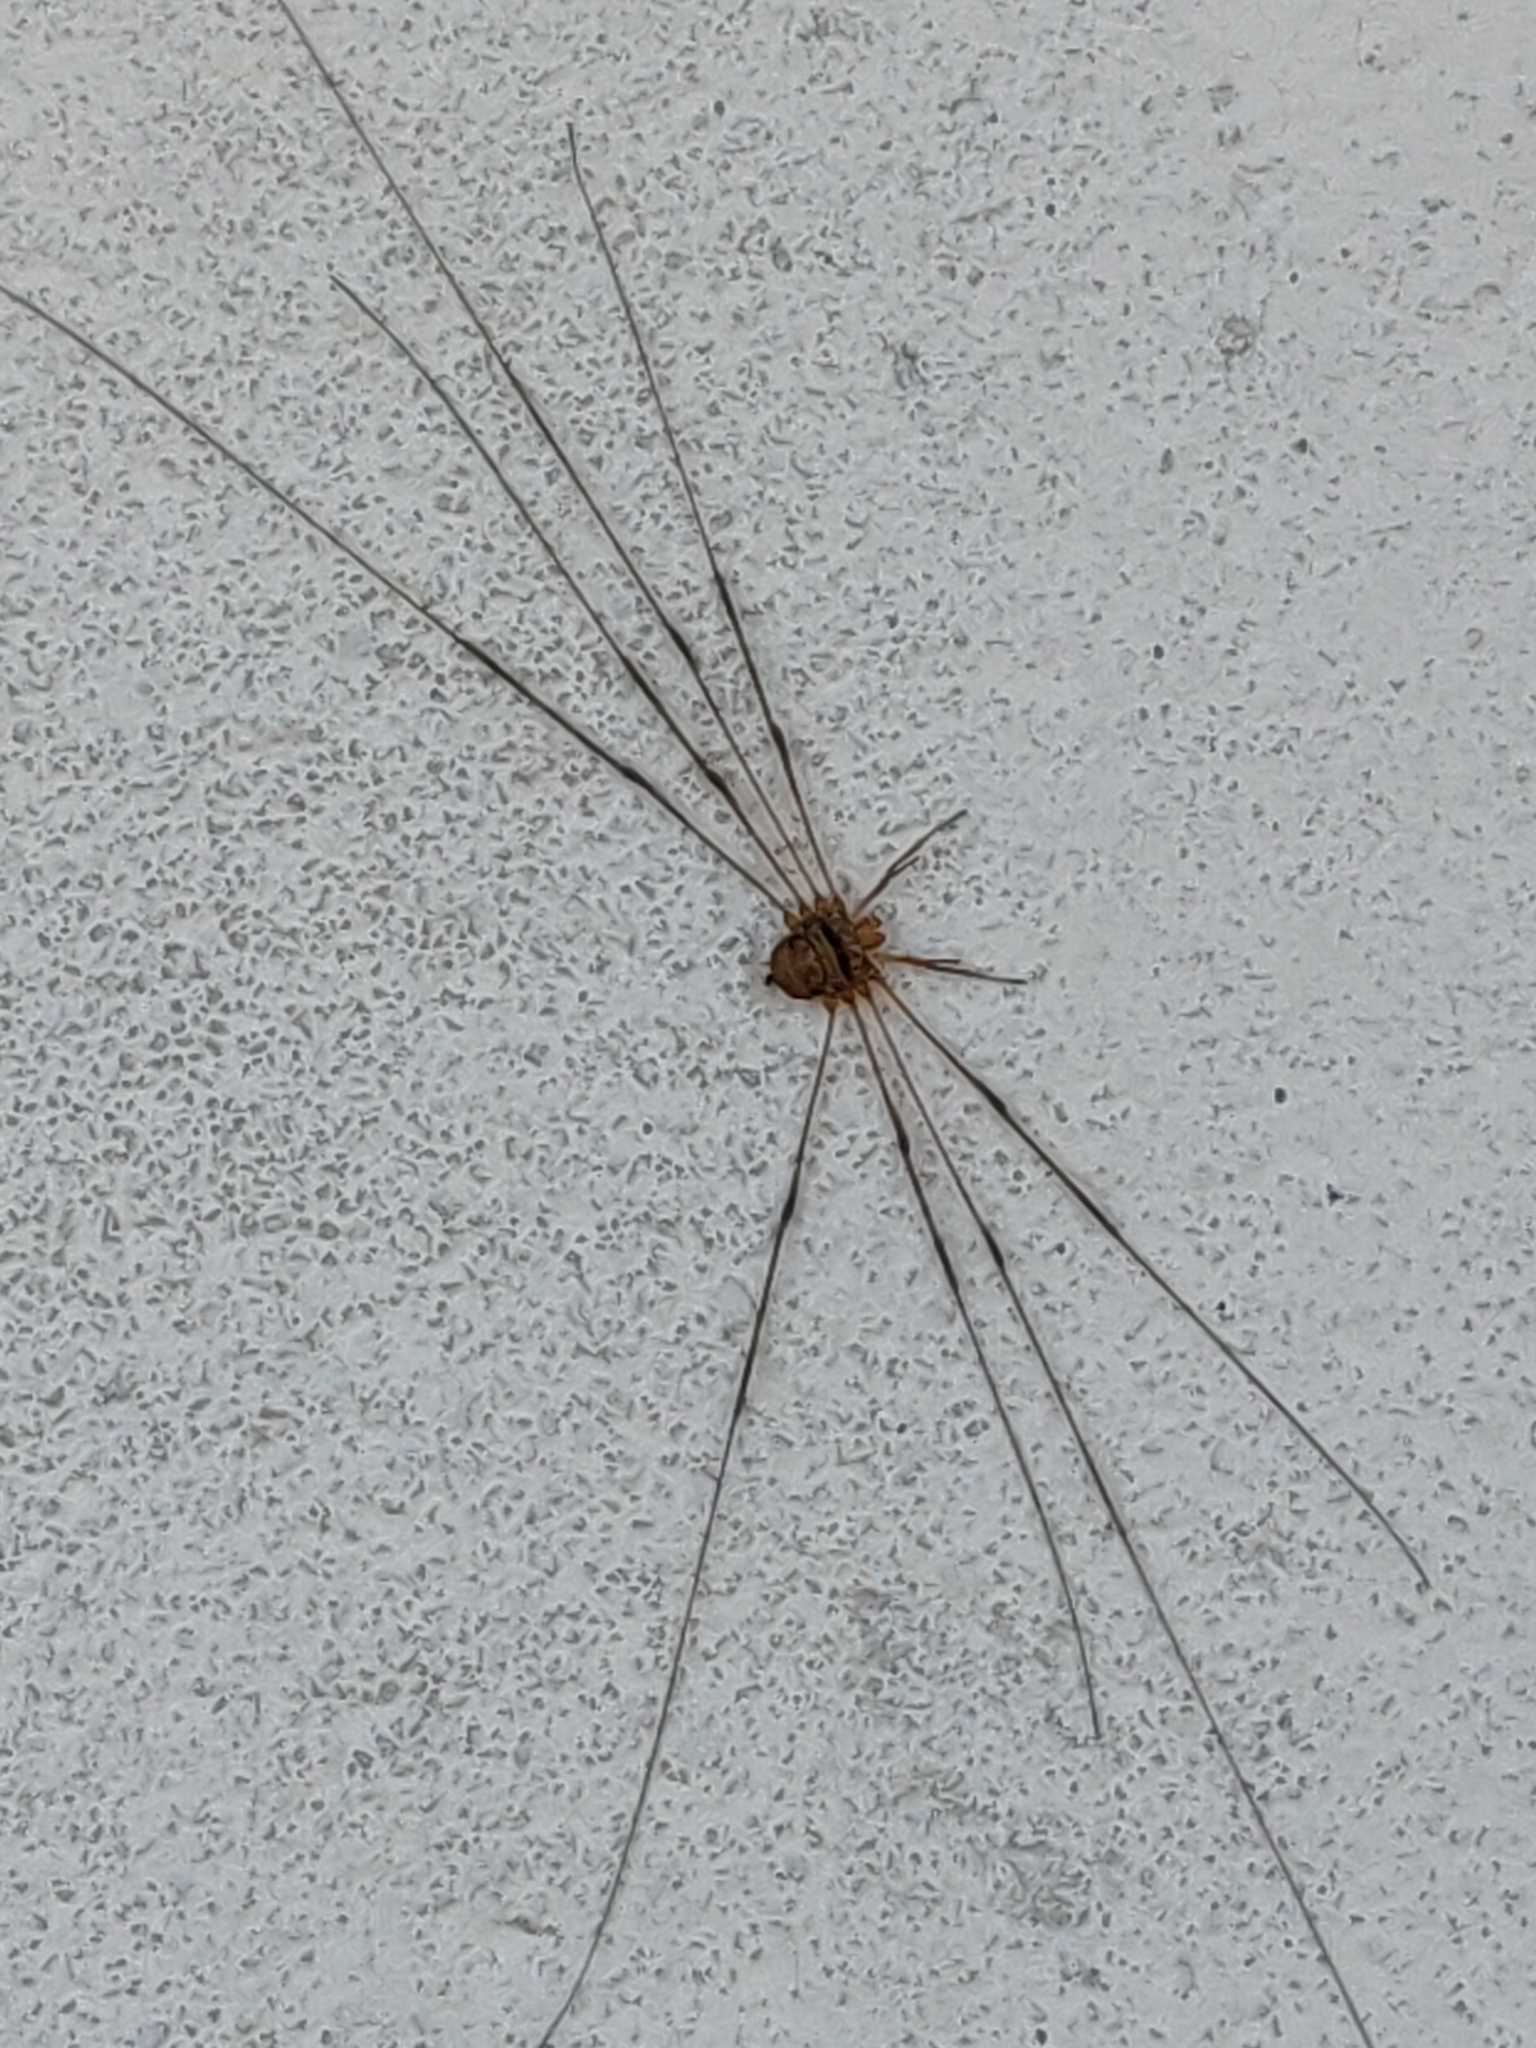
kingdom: Animalia
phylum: Arthropoda
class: Arachnida
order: Opiliones
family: Phalangiidae
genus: Dicranopalpus
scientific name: Dicranopalpus ramosus
